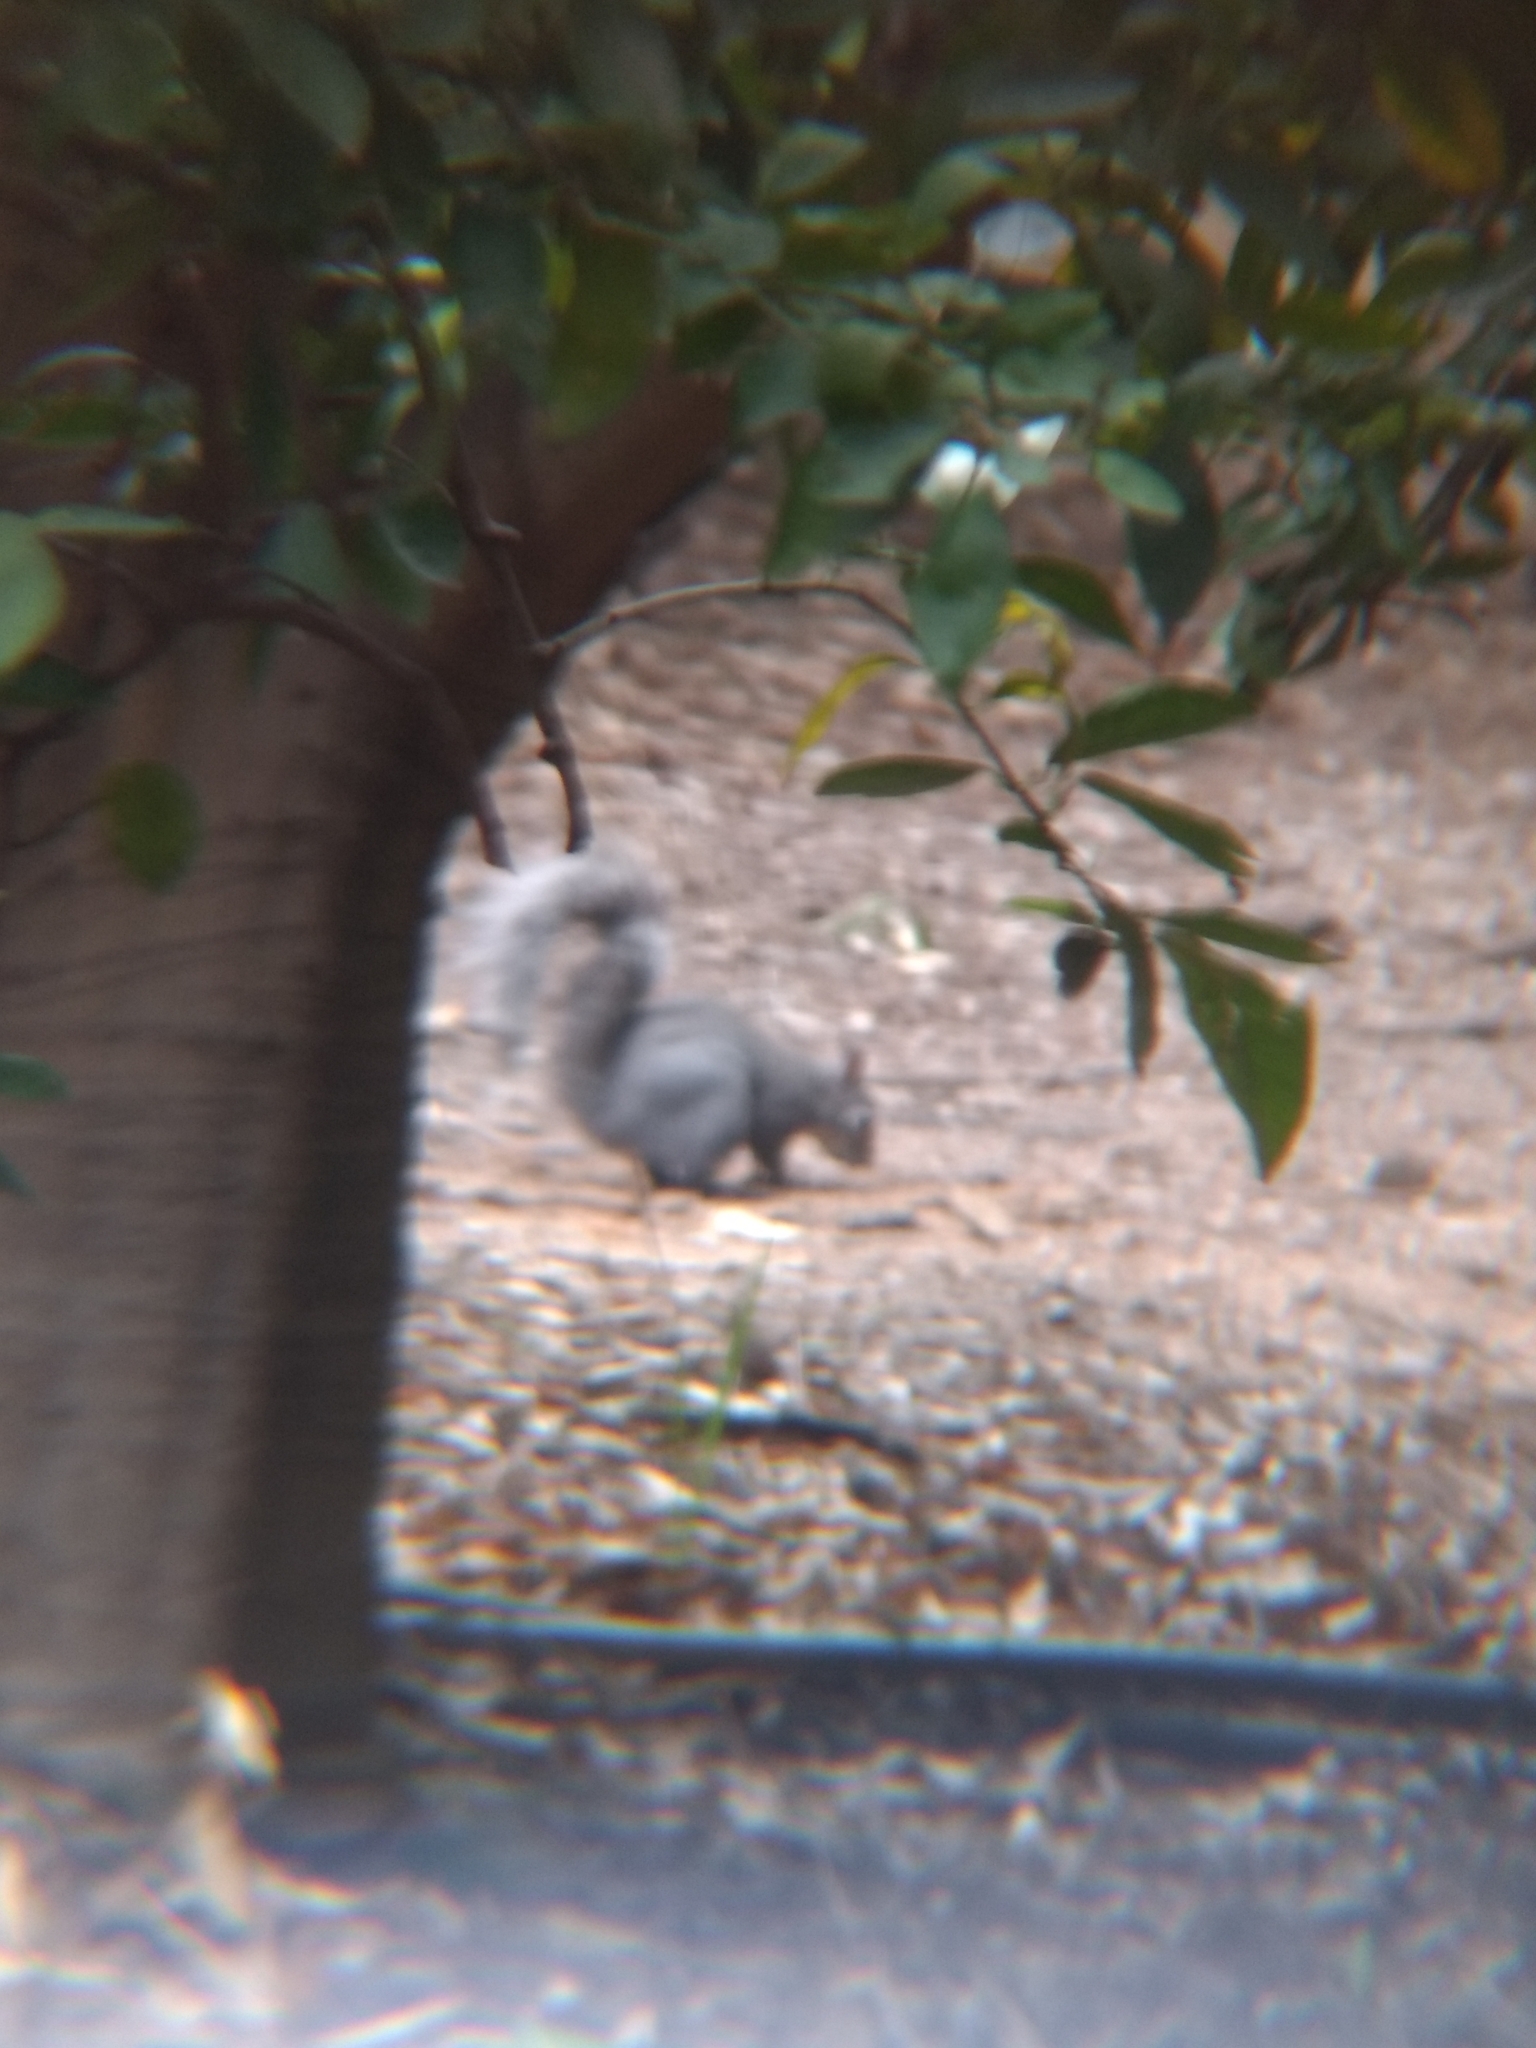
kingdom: Animalia
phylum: Chordata
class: Mammalia
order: Rodentia
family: Sciuridae
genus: Sciurus
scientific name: Sciurus griseus
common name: Western gray squirrel
